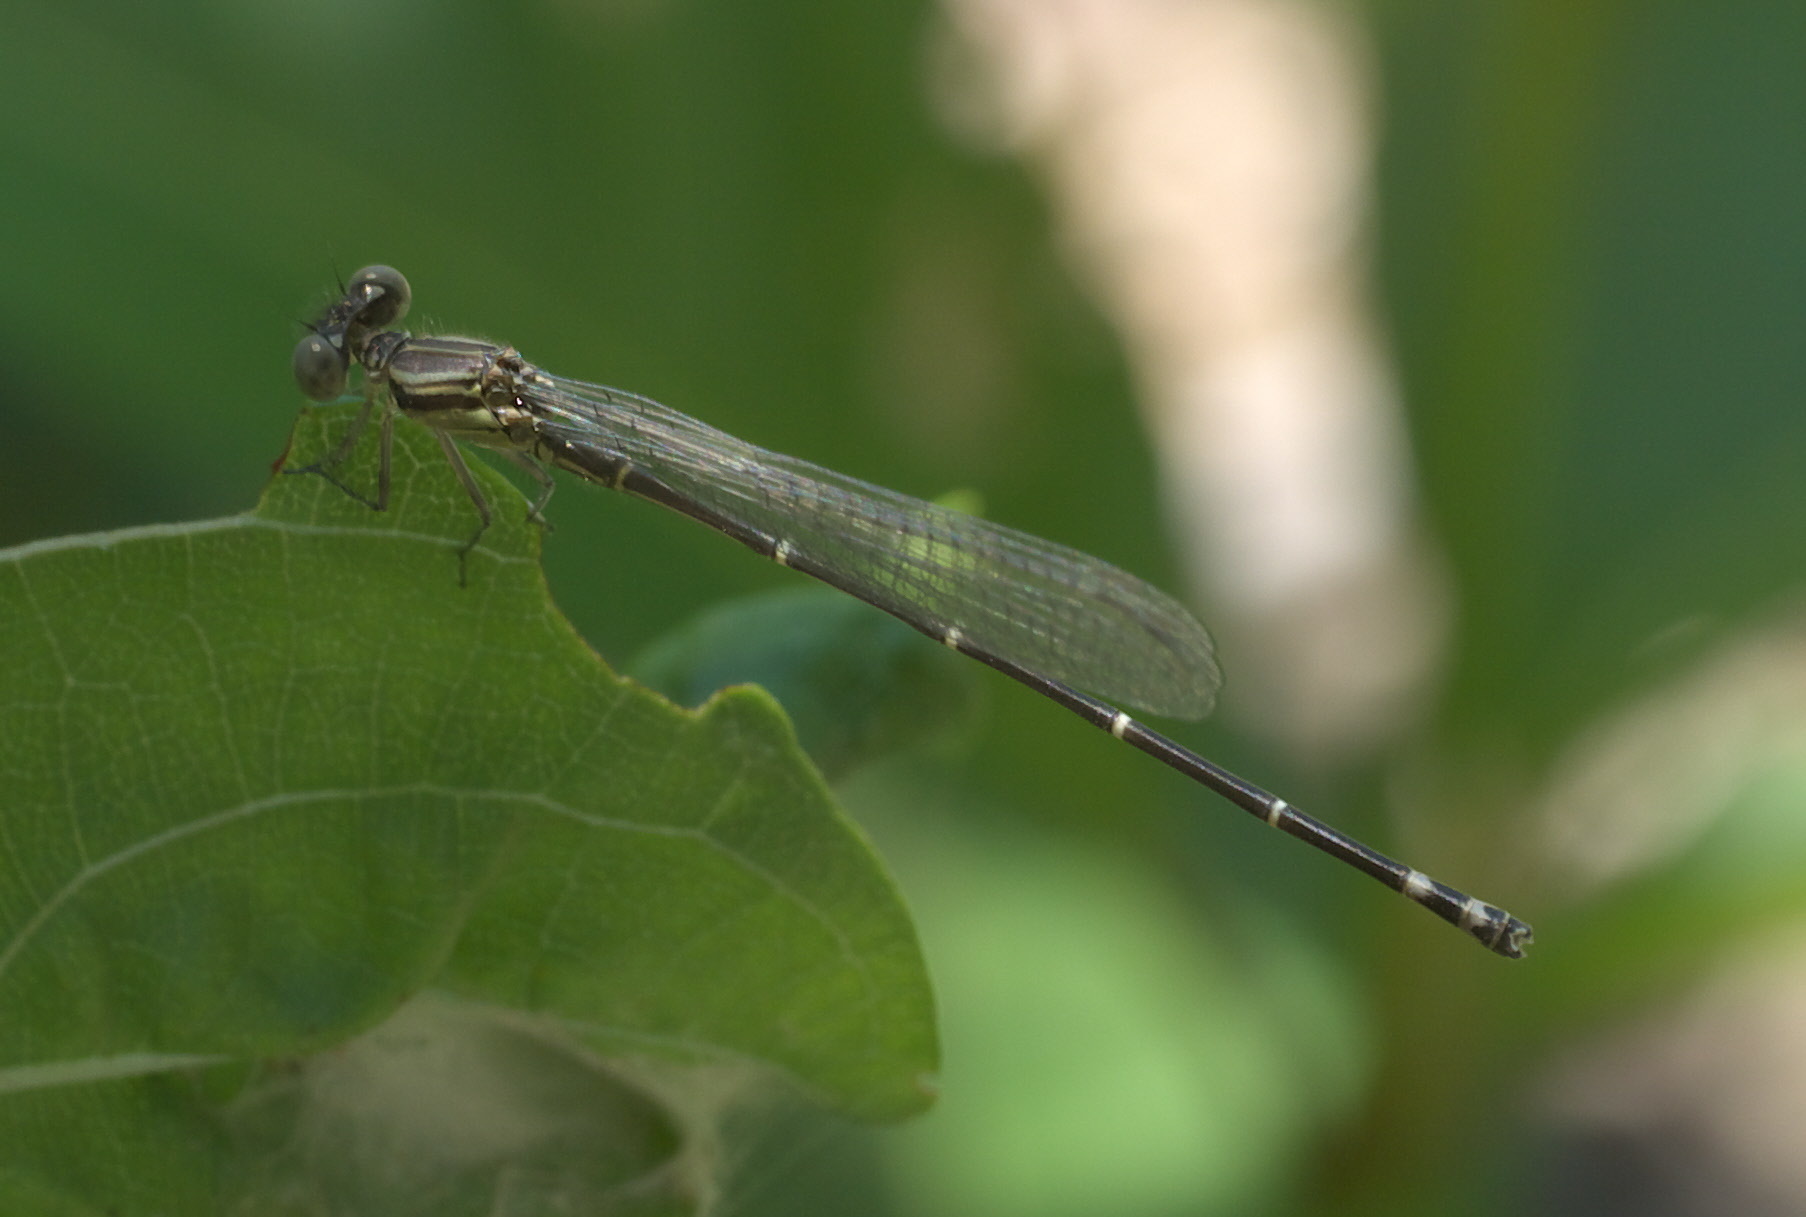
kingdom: Animalia
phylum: Arthropoda
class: Insecta
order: Odonata
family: Coenagrionidae
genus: Argia
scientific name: Argia translata
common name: Dusky dancer
